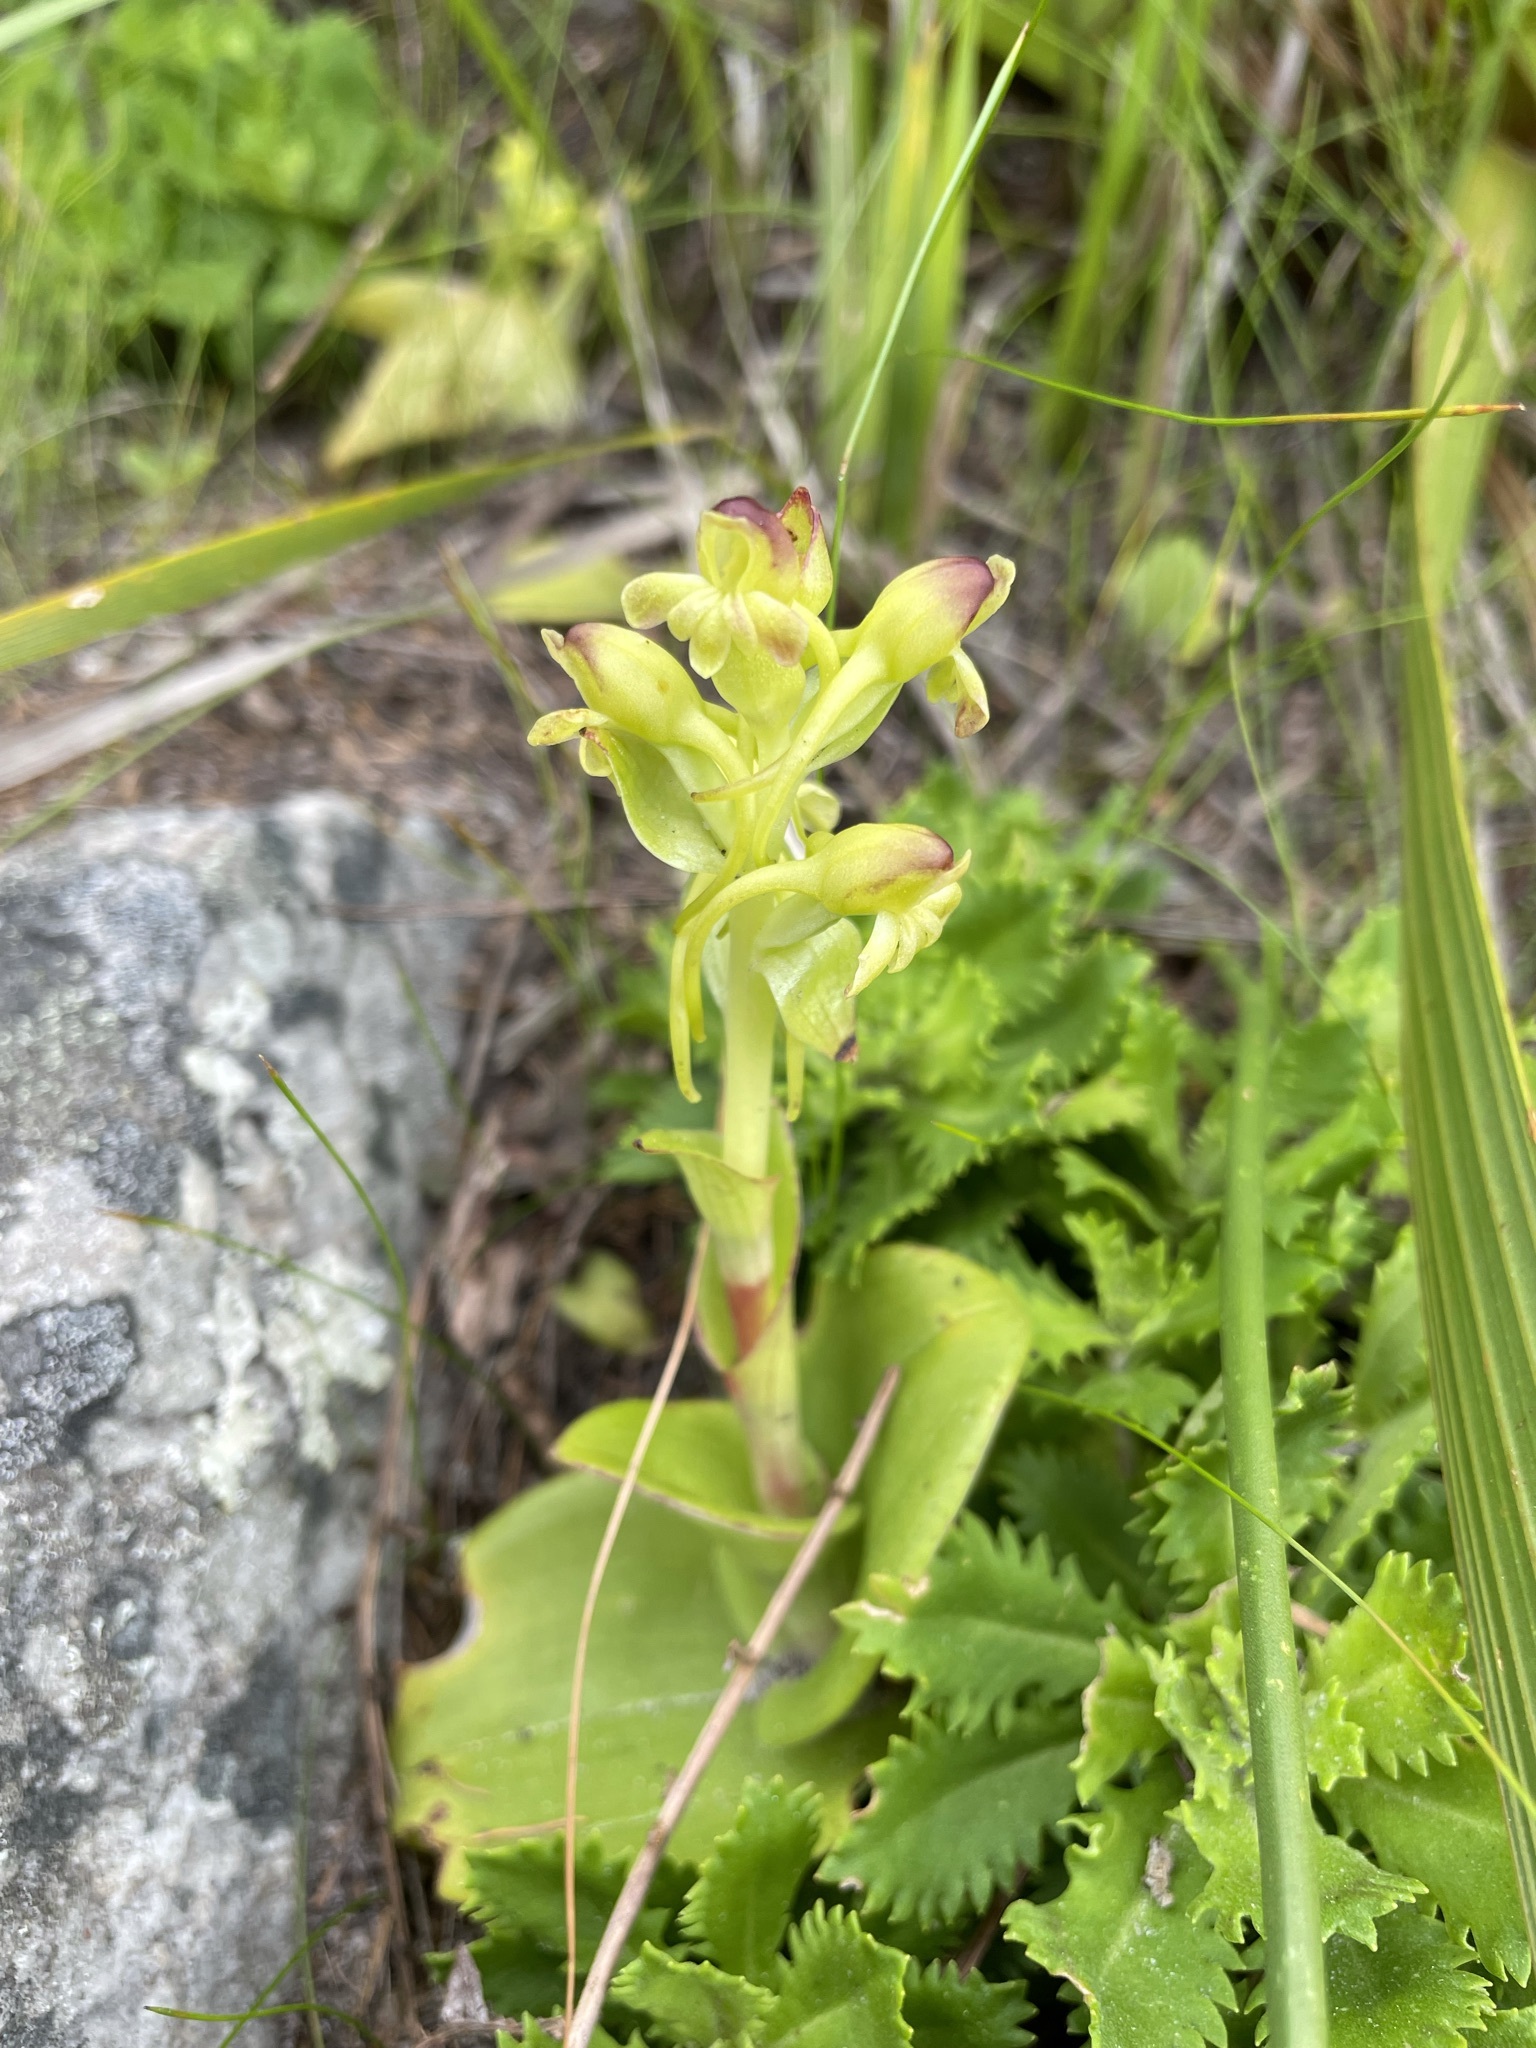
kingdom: Plantae
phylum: Tracheophyta
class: Liliopsida
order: Asparagales
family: Orchidaceae
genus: Satyrium
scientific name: Satyrium odorum
